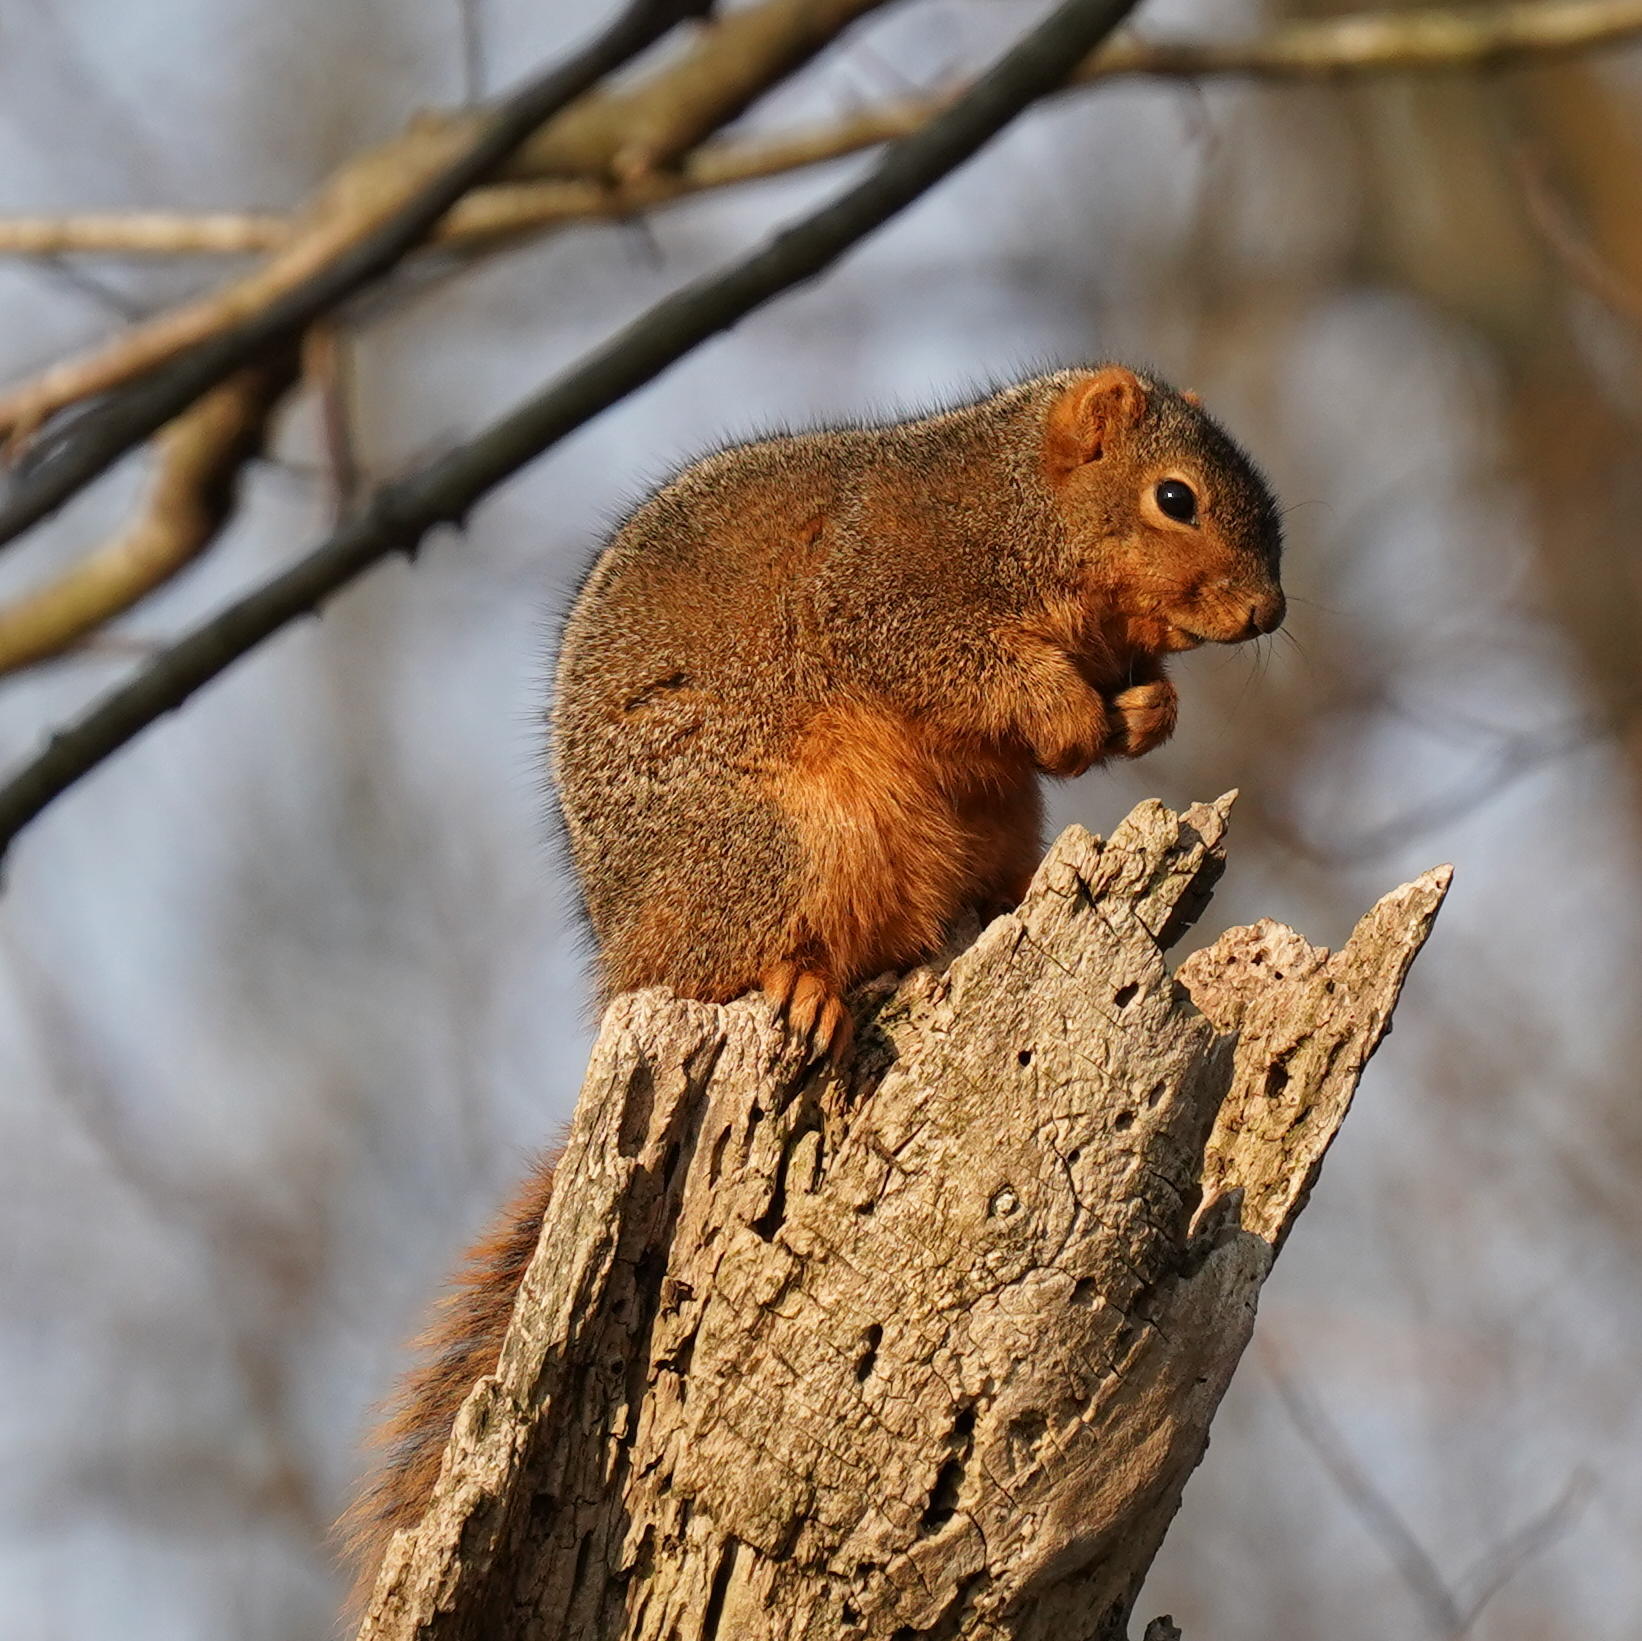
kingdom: Animalia
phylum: Chordata
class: Mammalia
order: Rodentia
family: Sciuridae
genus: Sciurus
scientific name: Sciurus niger
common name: Fox squirrel
